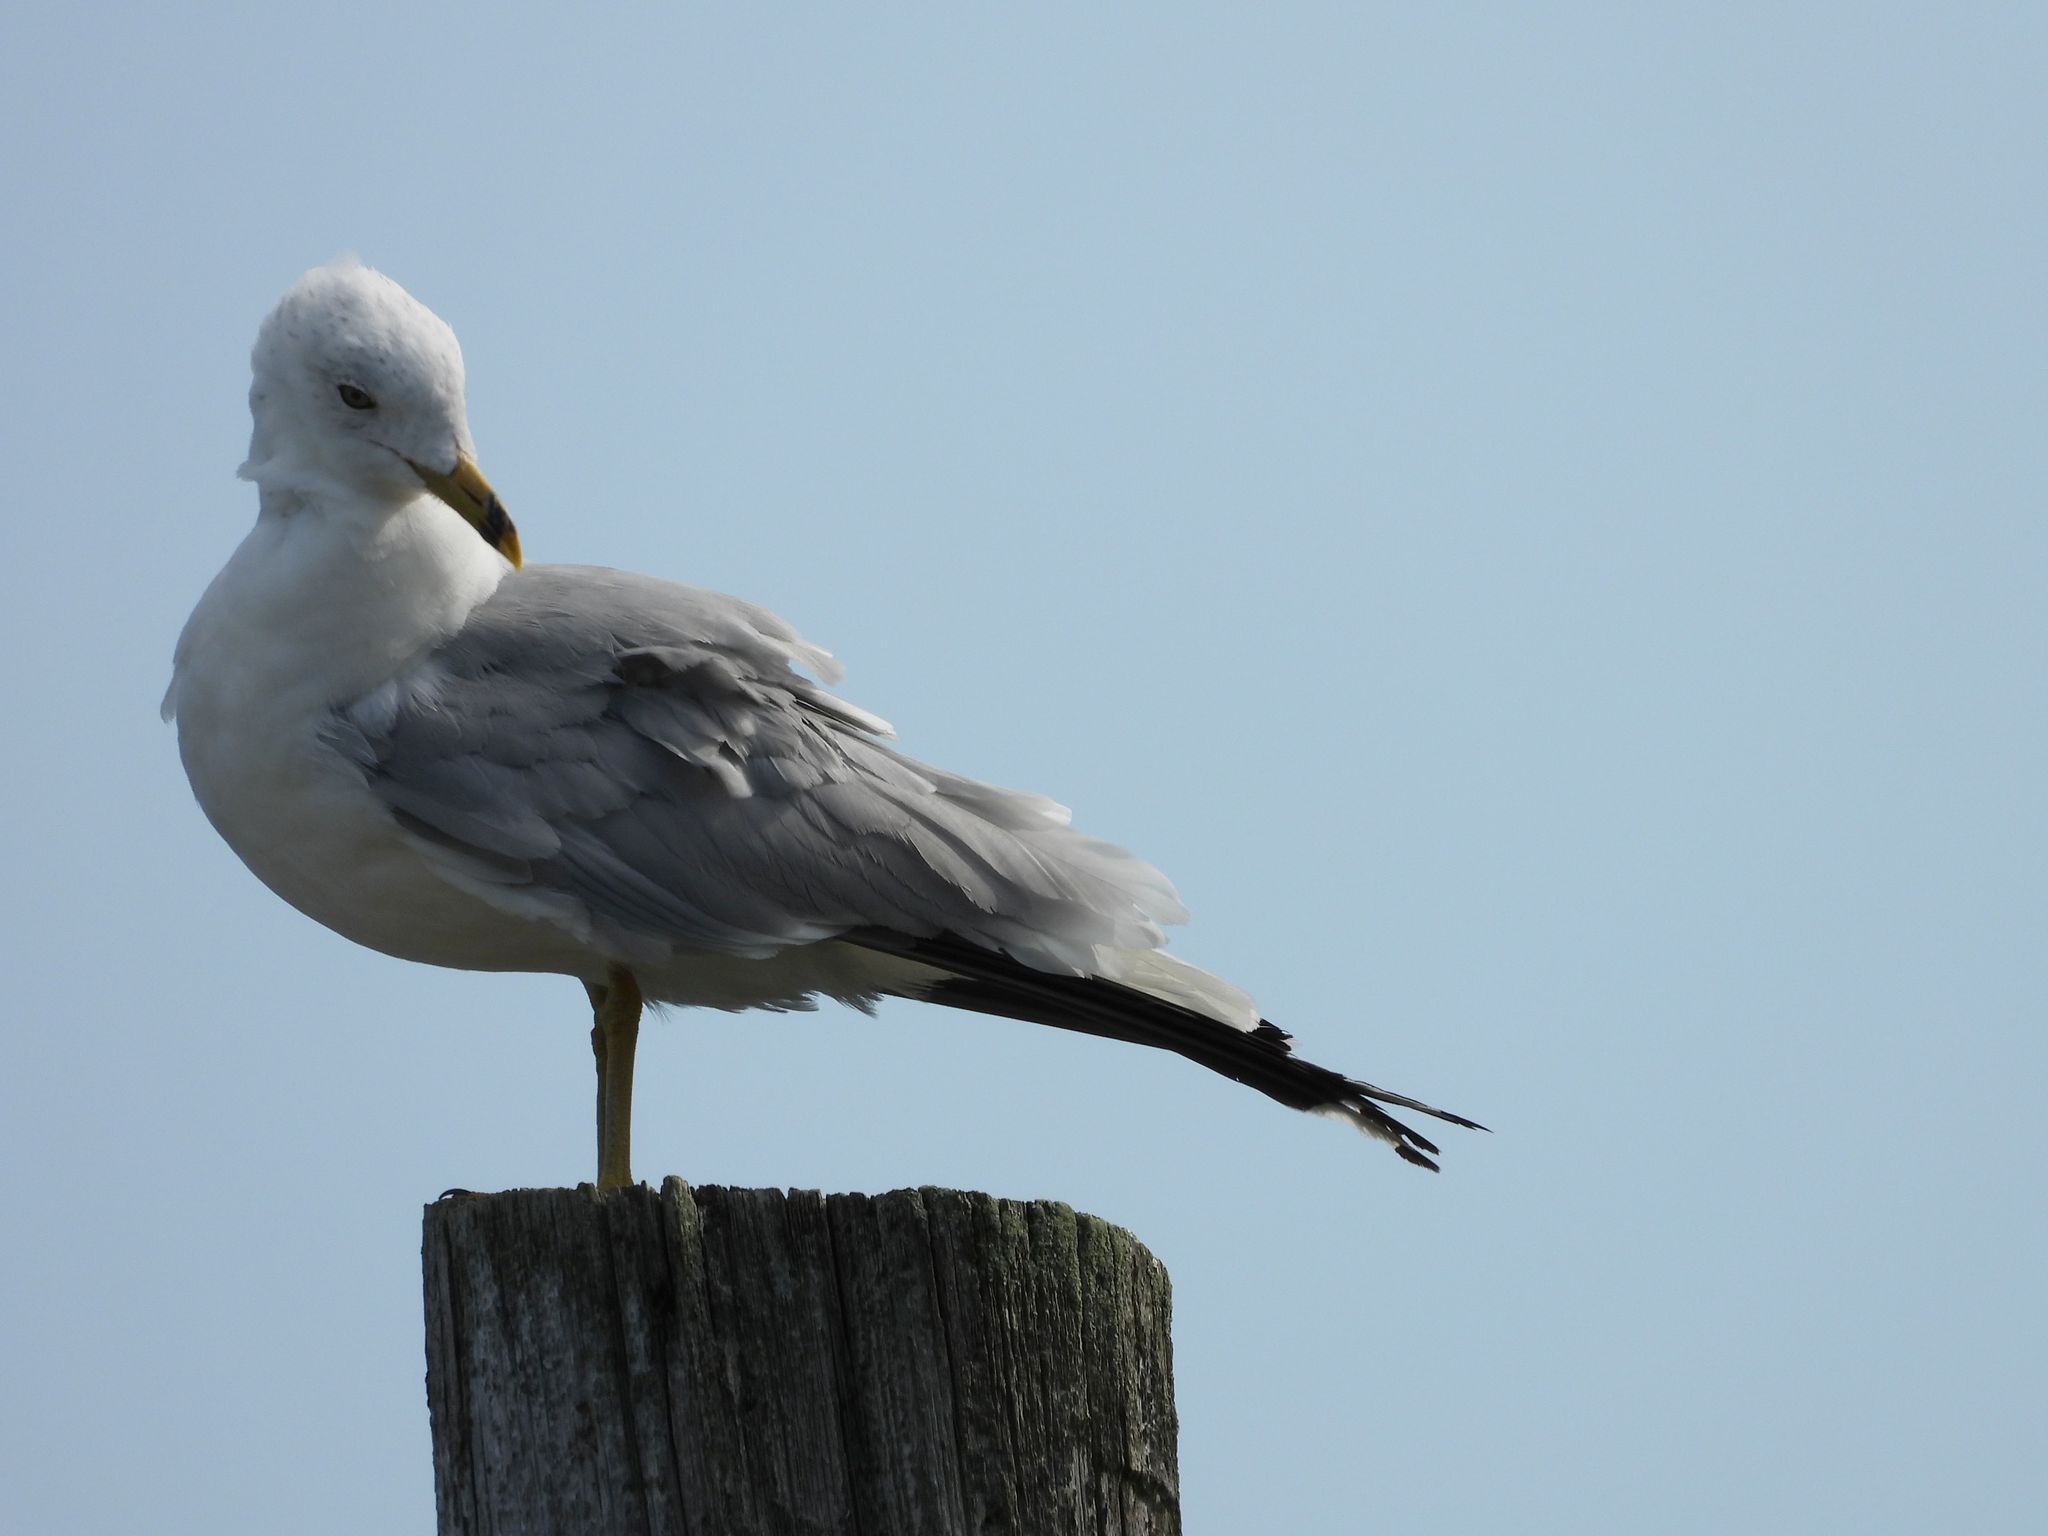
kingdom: Animalia
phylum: Chordata
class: Aves
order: Charadriiformes
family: Laridae
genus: Larus
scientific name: Larus delawarensis
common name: Ring-billed gull
